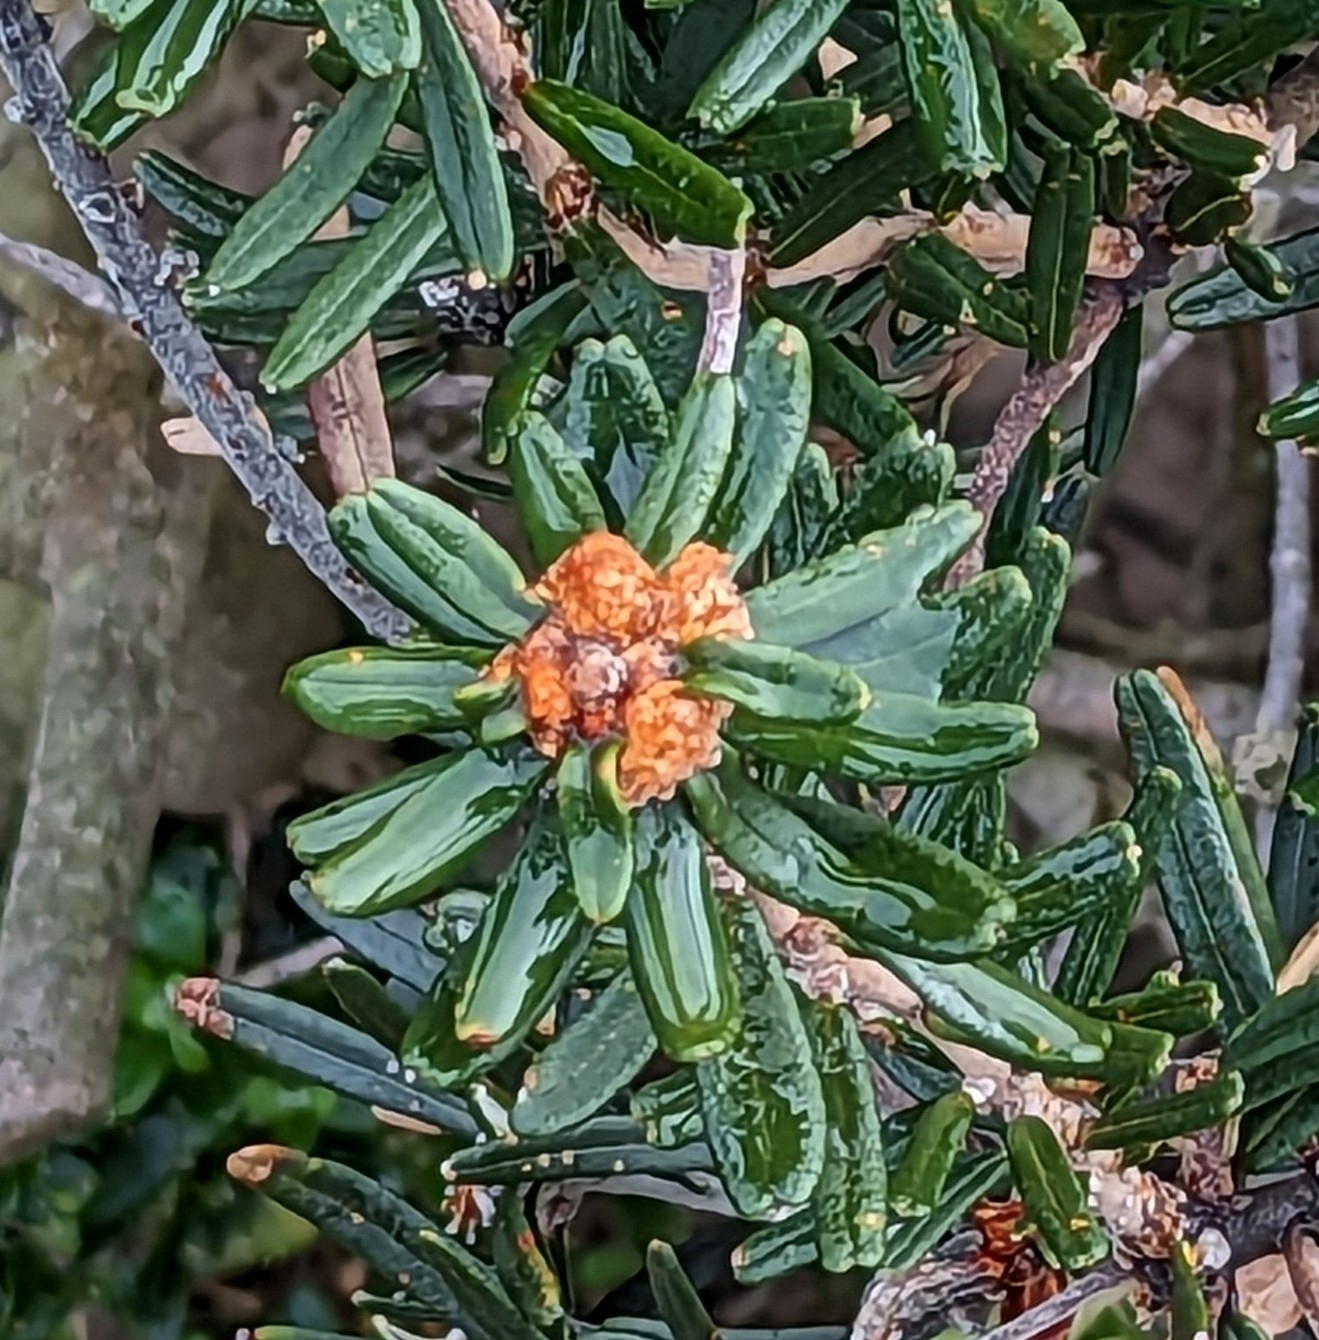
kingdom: Plantae
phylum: Tracheophyta
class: Magnoliopsida
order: Proteales
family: Proteaceae
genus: Banksia
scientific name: Banksia marginata
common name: Silver banksia
